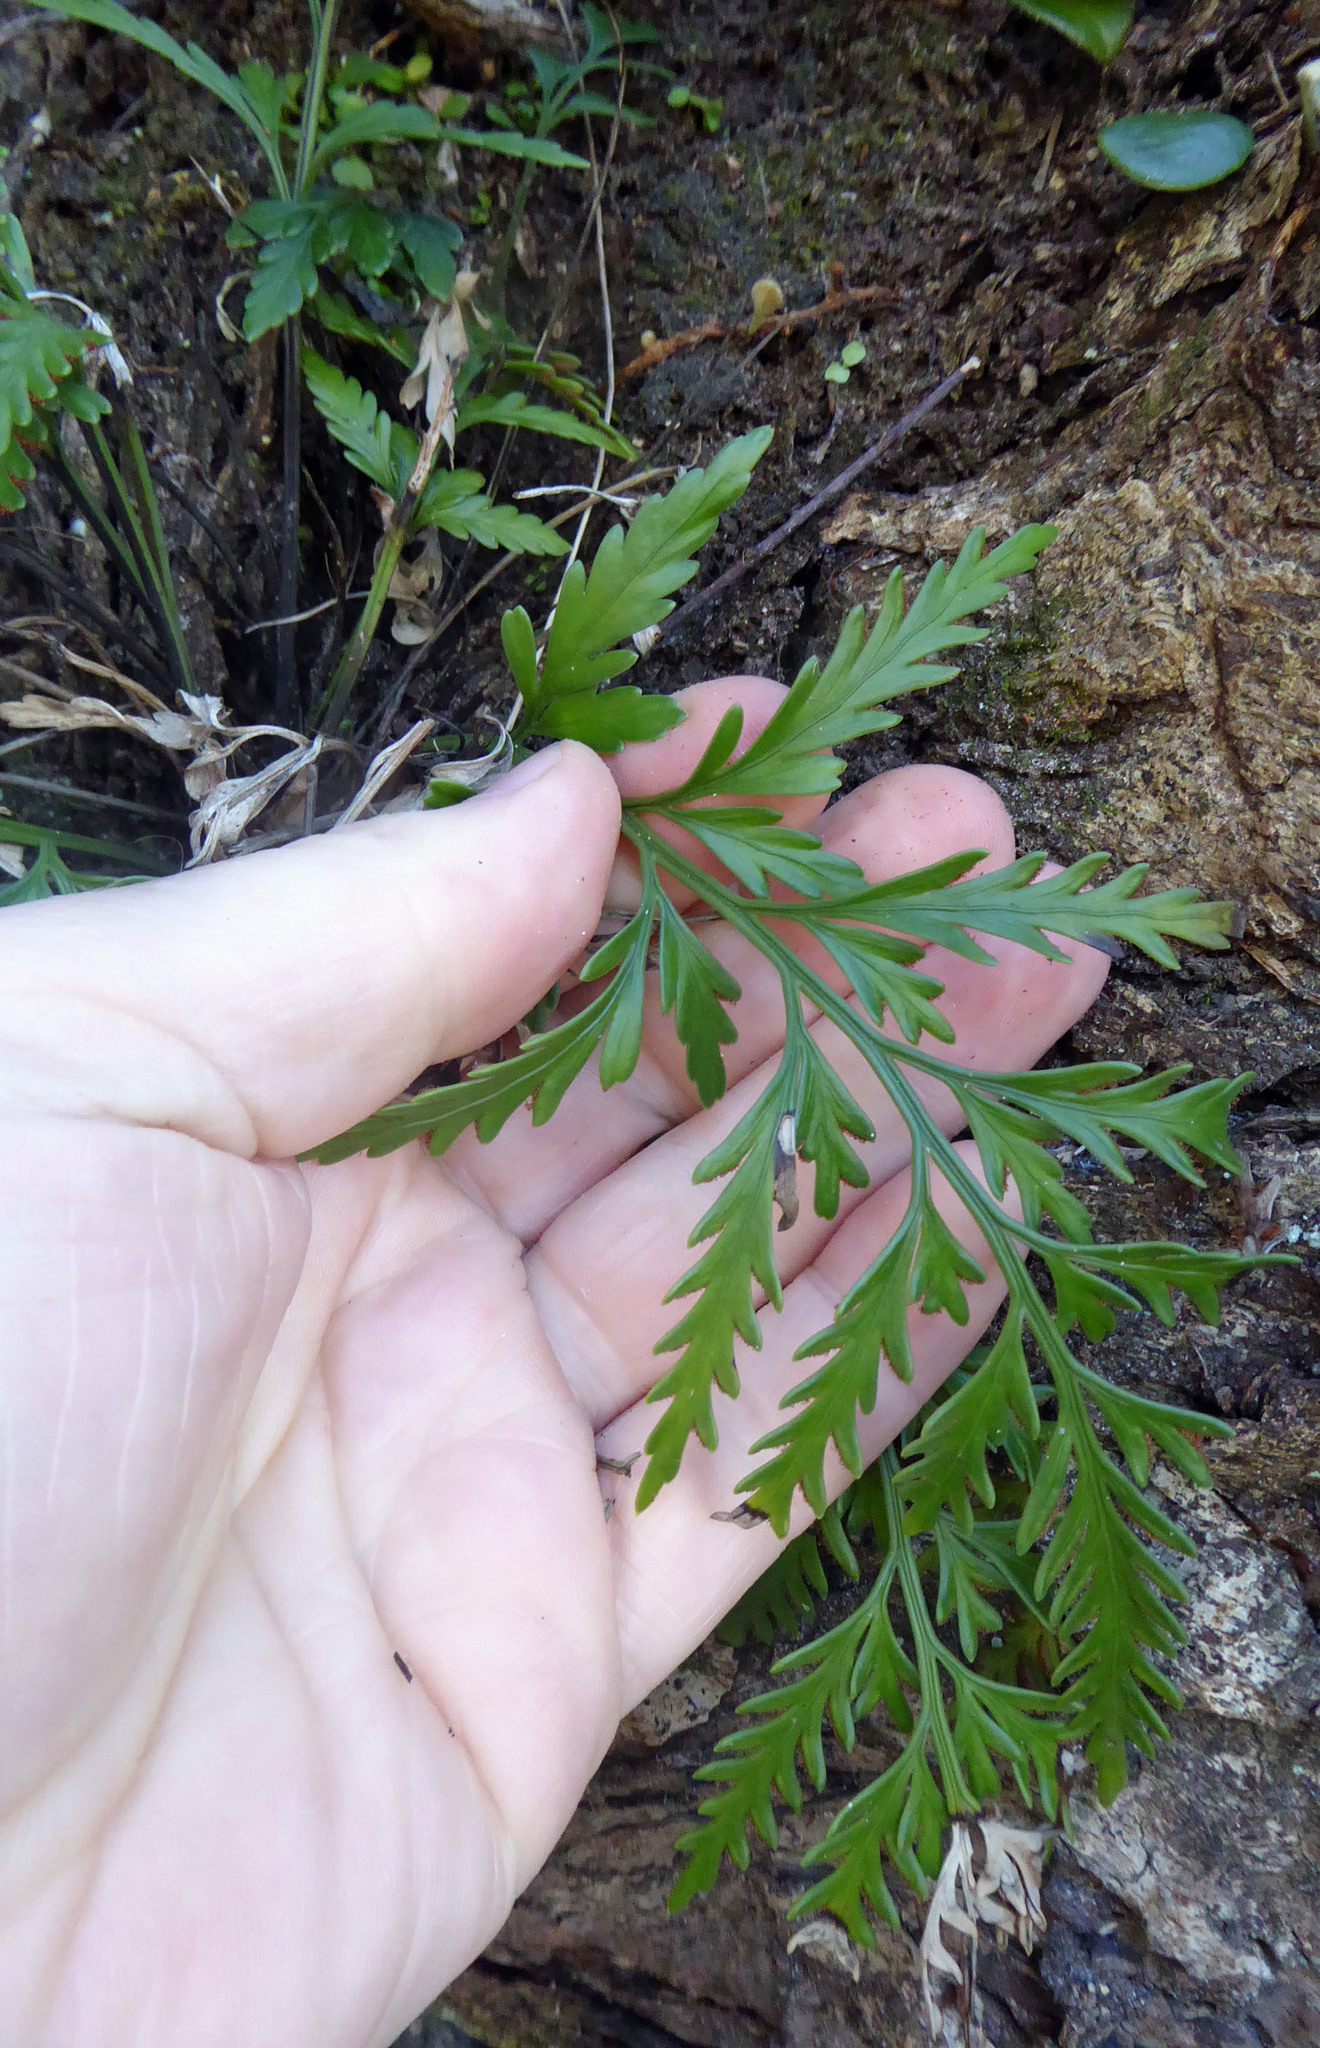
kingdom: Plantae
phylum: Tracheophyta
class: Polypodiopsida
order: Polypodiales
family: Aspleniaceae
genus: Asplenium
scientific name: Asplenium haurakiense
